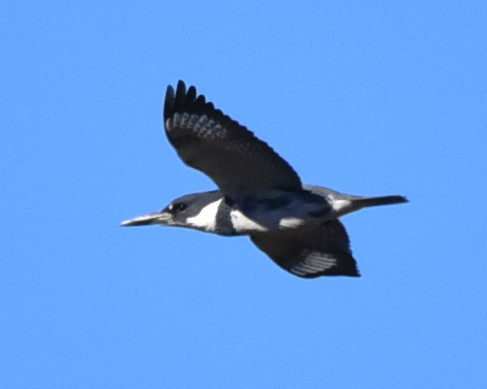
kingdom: Animalia
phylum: Chordata
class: Aves
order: Coraciiformes
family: Alcedinidae
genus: Megaceryle
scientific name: Megaceryle alcyon
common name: Belted kingfisher
